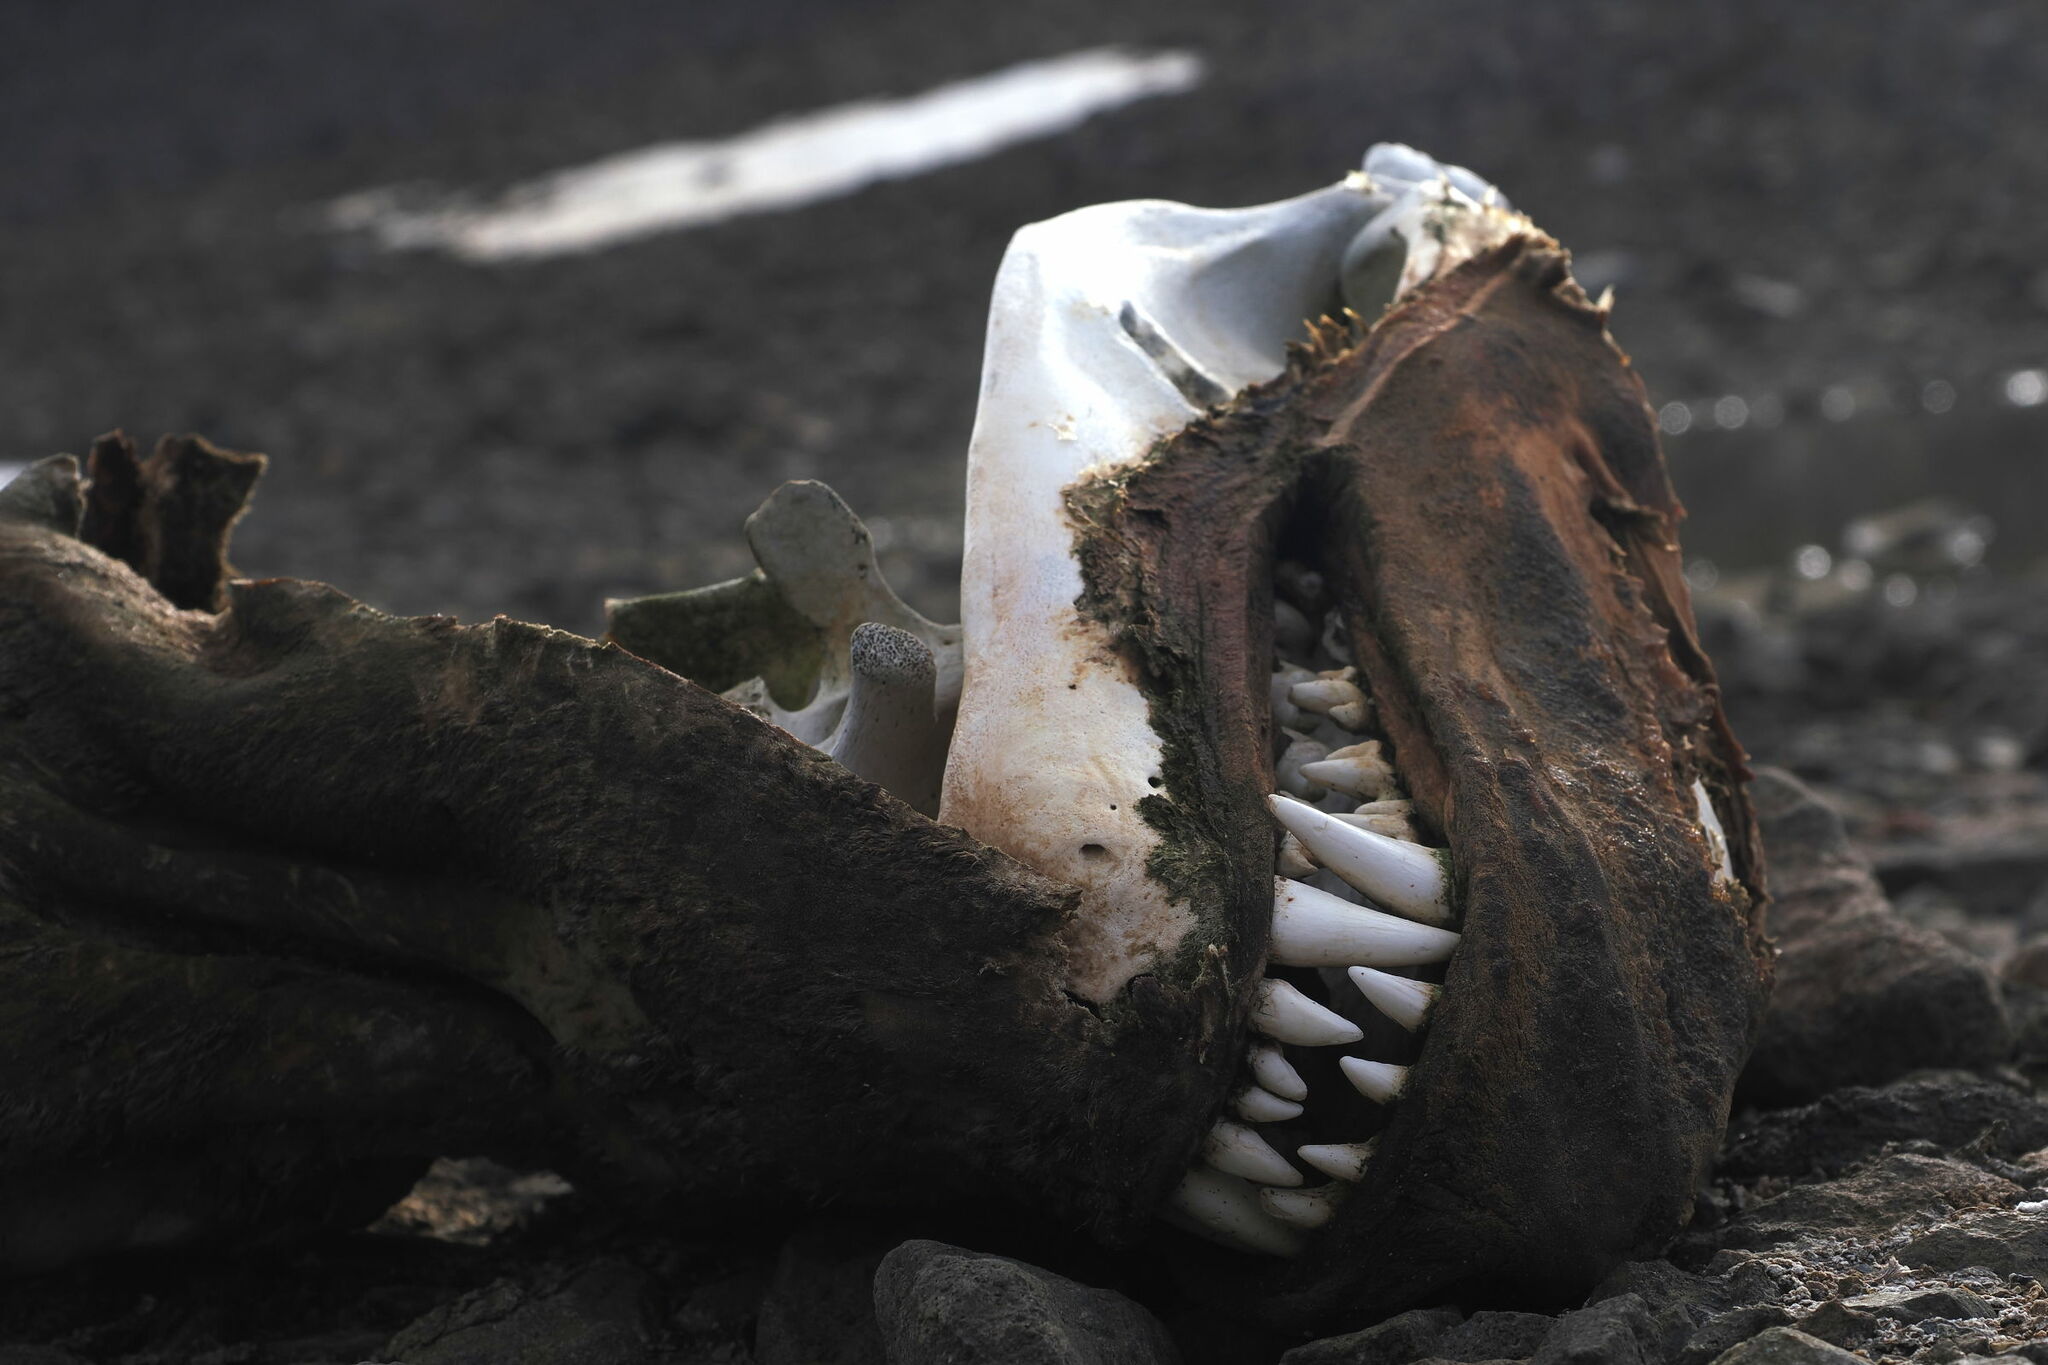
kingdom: Animalia
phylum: Chordata
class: Mammalia
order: Carnivora
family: Phocidae
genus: Hydrurga
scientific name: Hydrurga leptonyx
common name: Leopard seal
